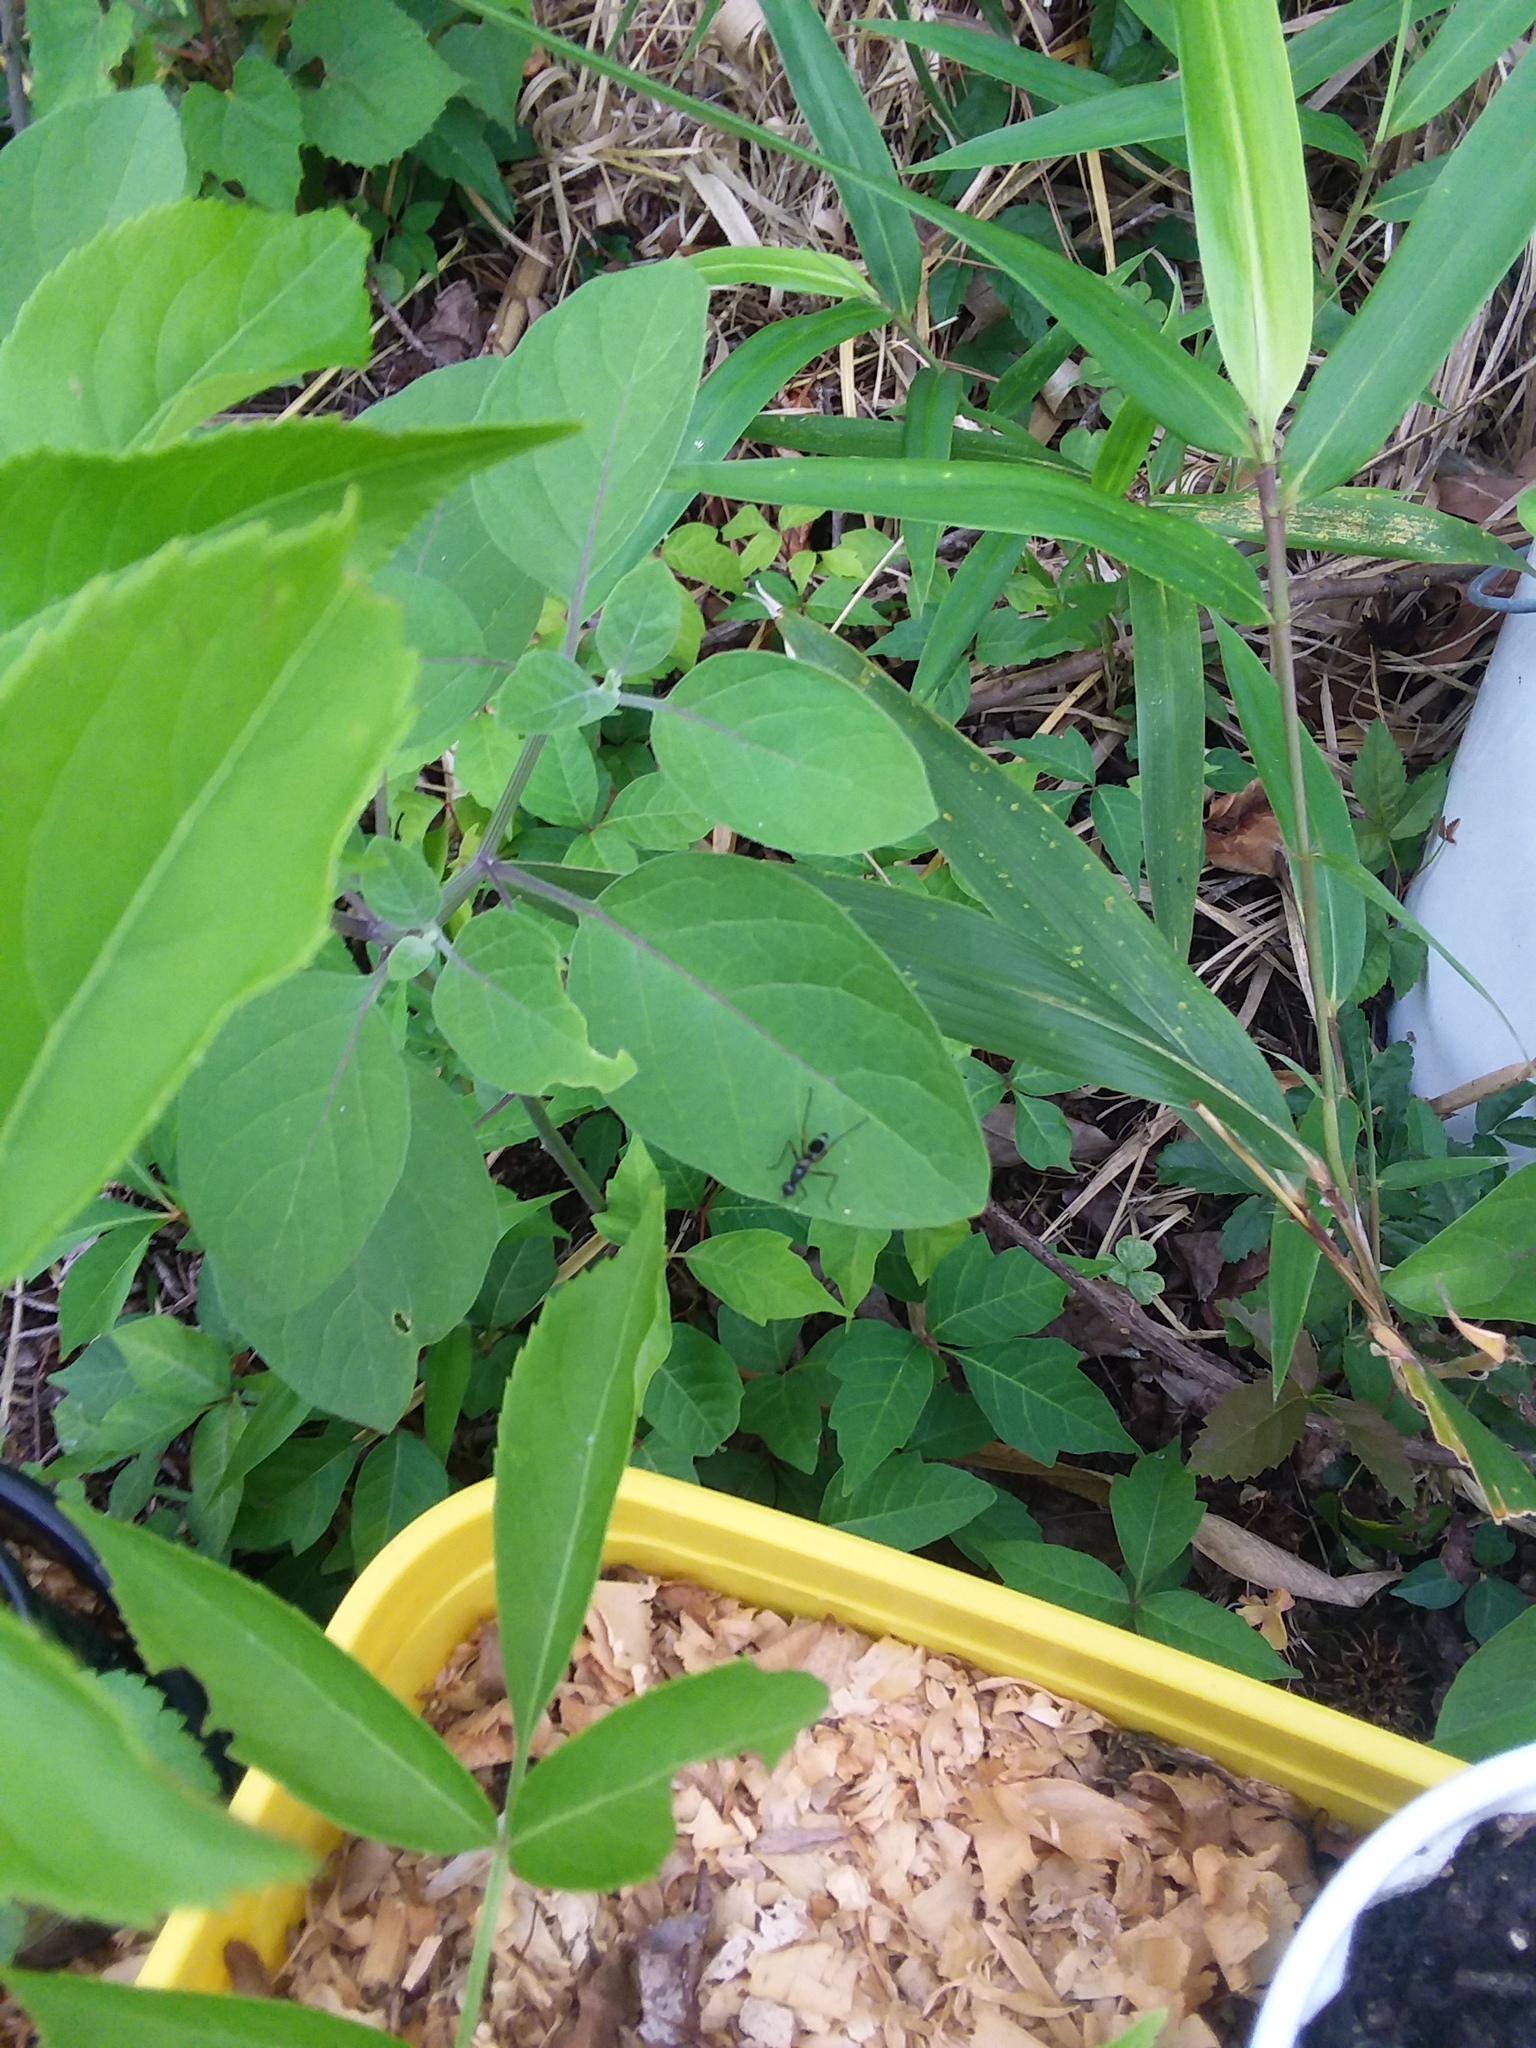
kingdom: Plantae
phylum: Tracheophyta
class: Magnoliopsida
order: Solanales
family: Solanaceae
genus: Physalis
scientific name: Physalis walteri
